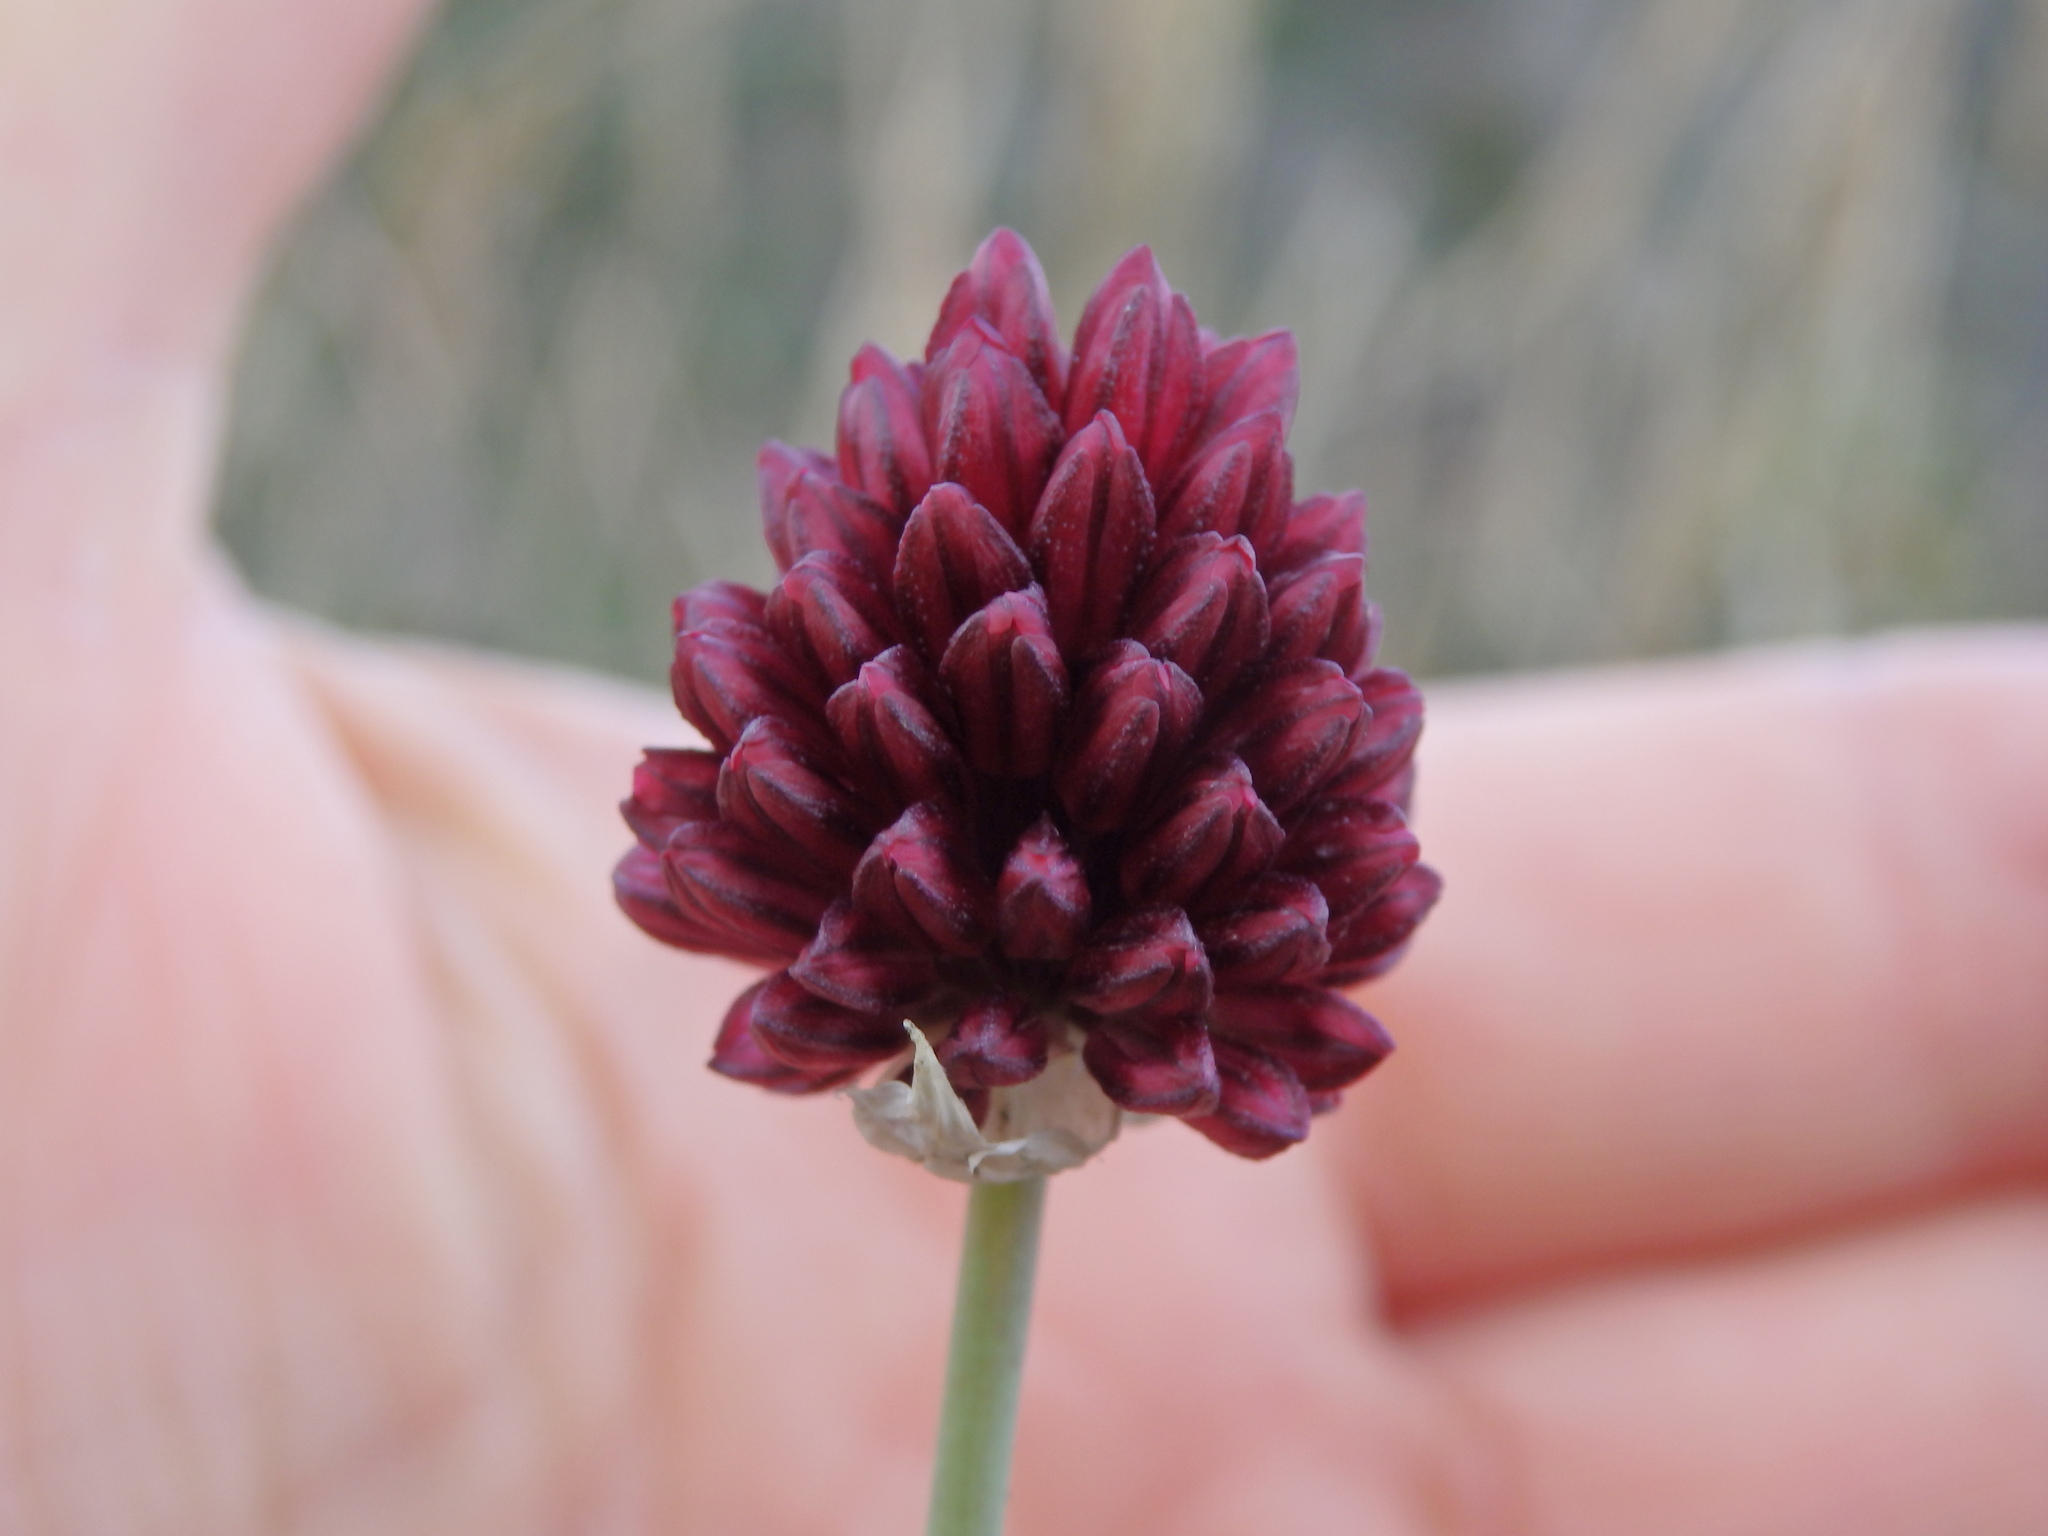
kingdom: Plantae
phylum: Tracheophyta
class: Liliopsida
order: Asparagales
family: Amaryllidaceae
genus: Allium
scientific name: Allium sphaerocephalon
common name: Round-headed leek
